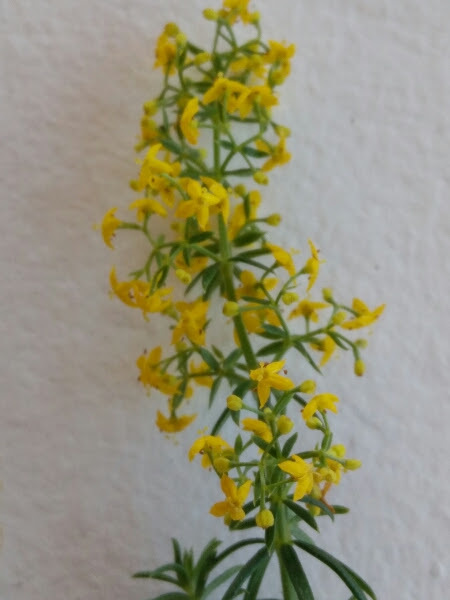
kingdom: Plantae
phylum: Tracheophyta
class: Magnoliopsida
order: Gentianales
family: Rubiaceae
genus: Galium
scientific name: Galium verum
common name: Lady's bedstraw
